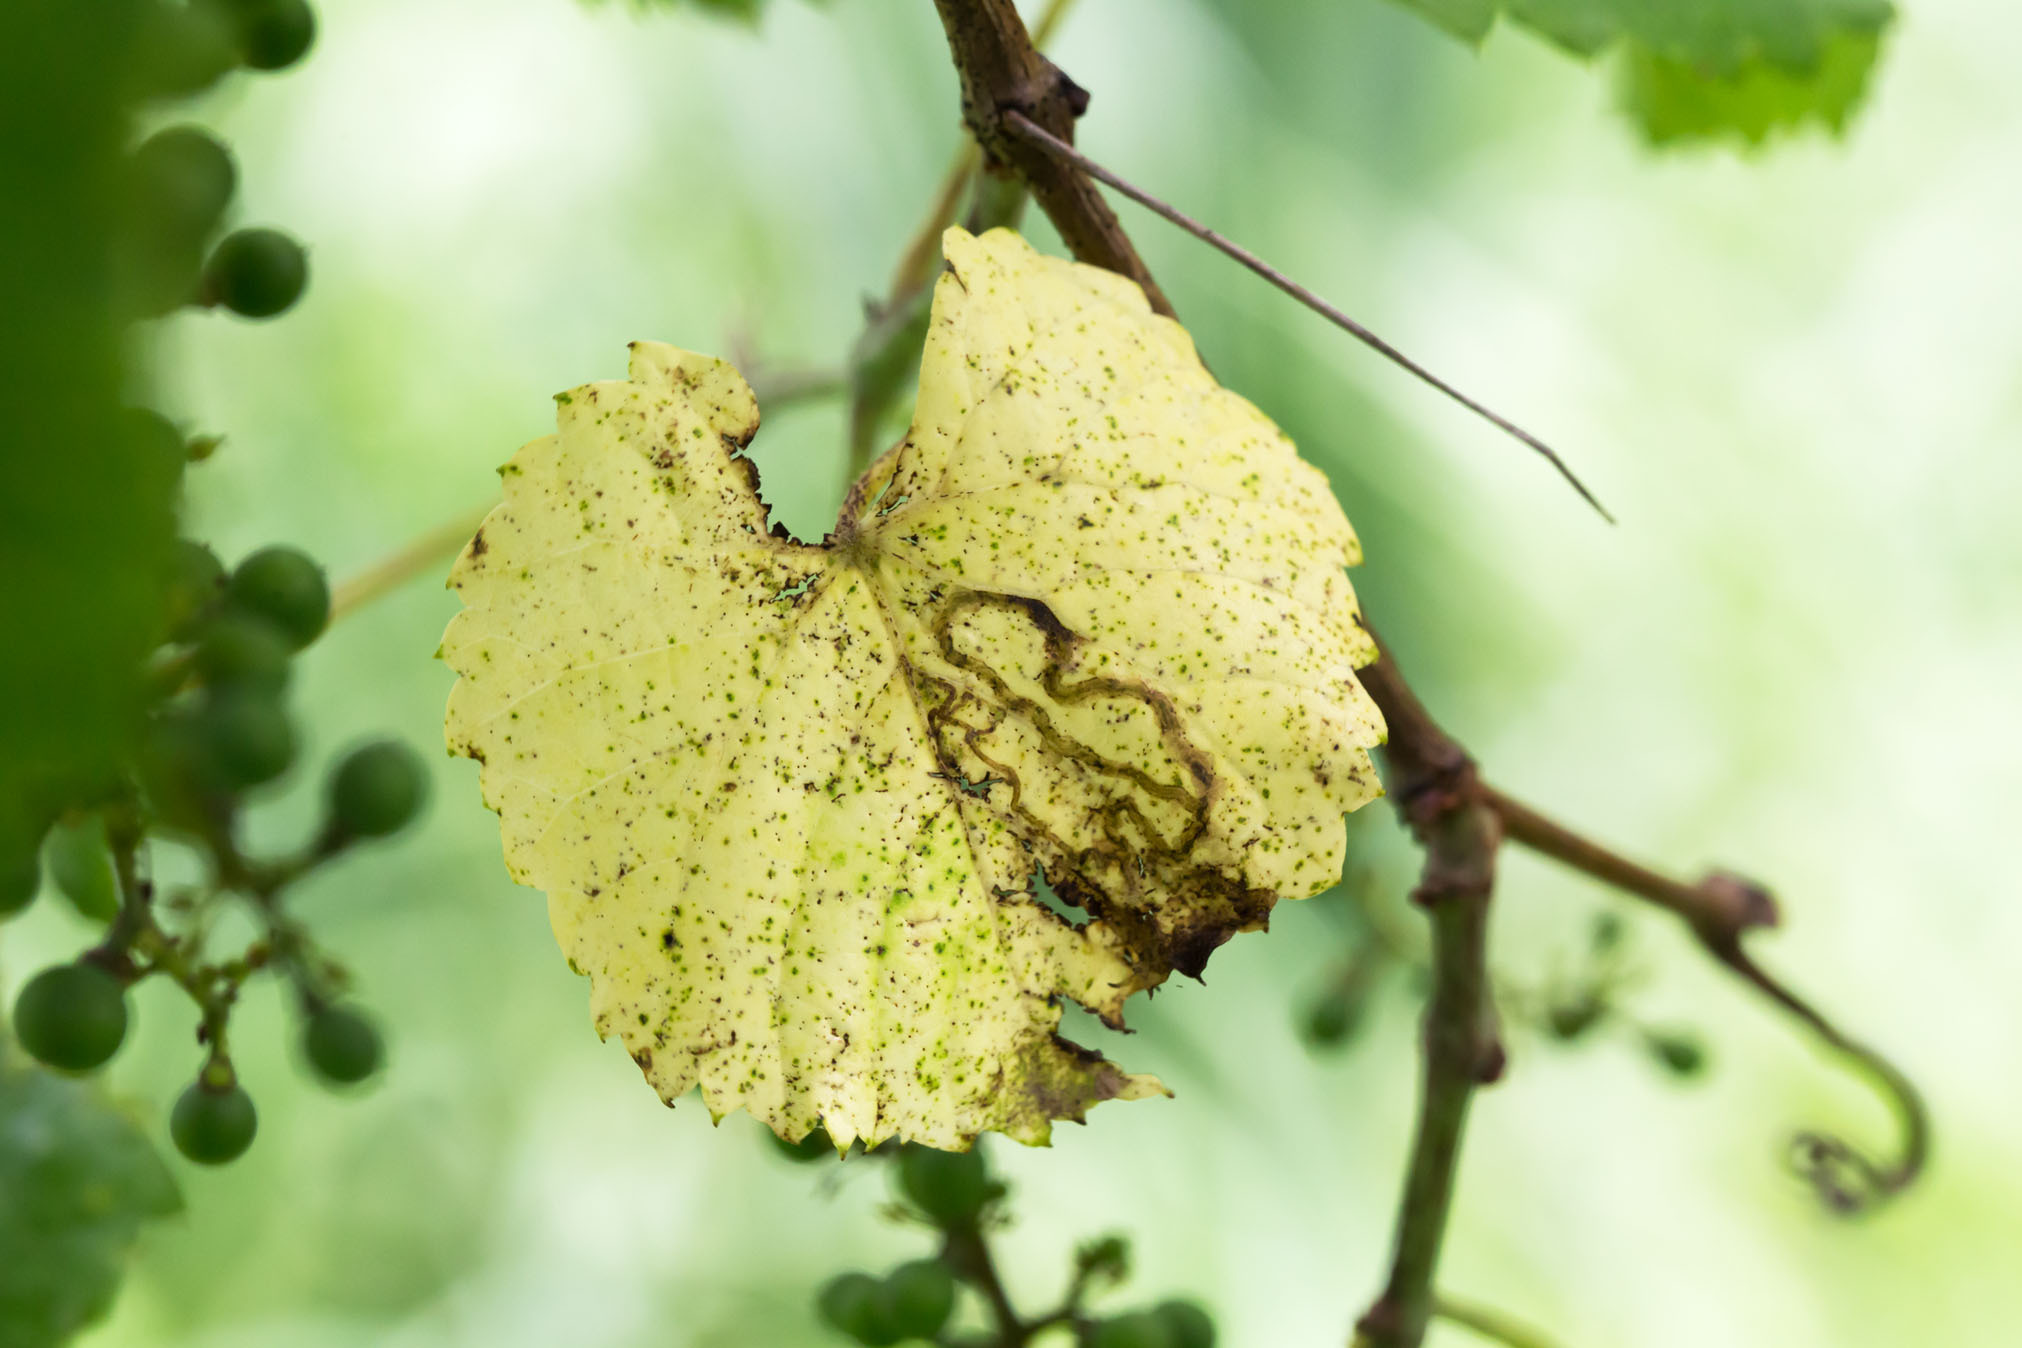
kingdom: Animalia
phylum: Arthropoda
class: Insecta
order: Lepidoptera
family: Gracillariidae
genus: Phyllocnistis
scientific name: Phyllocnistis vitifoliella
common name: Grape leaf-miner moth
